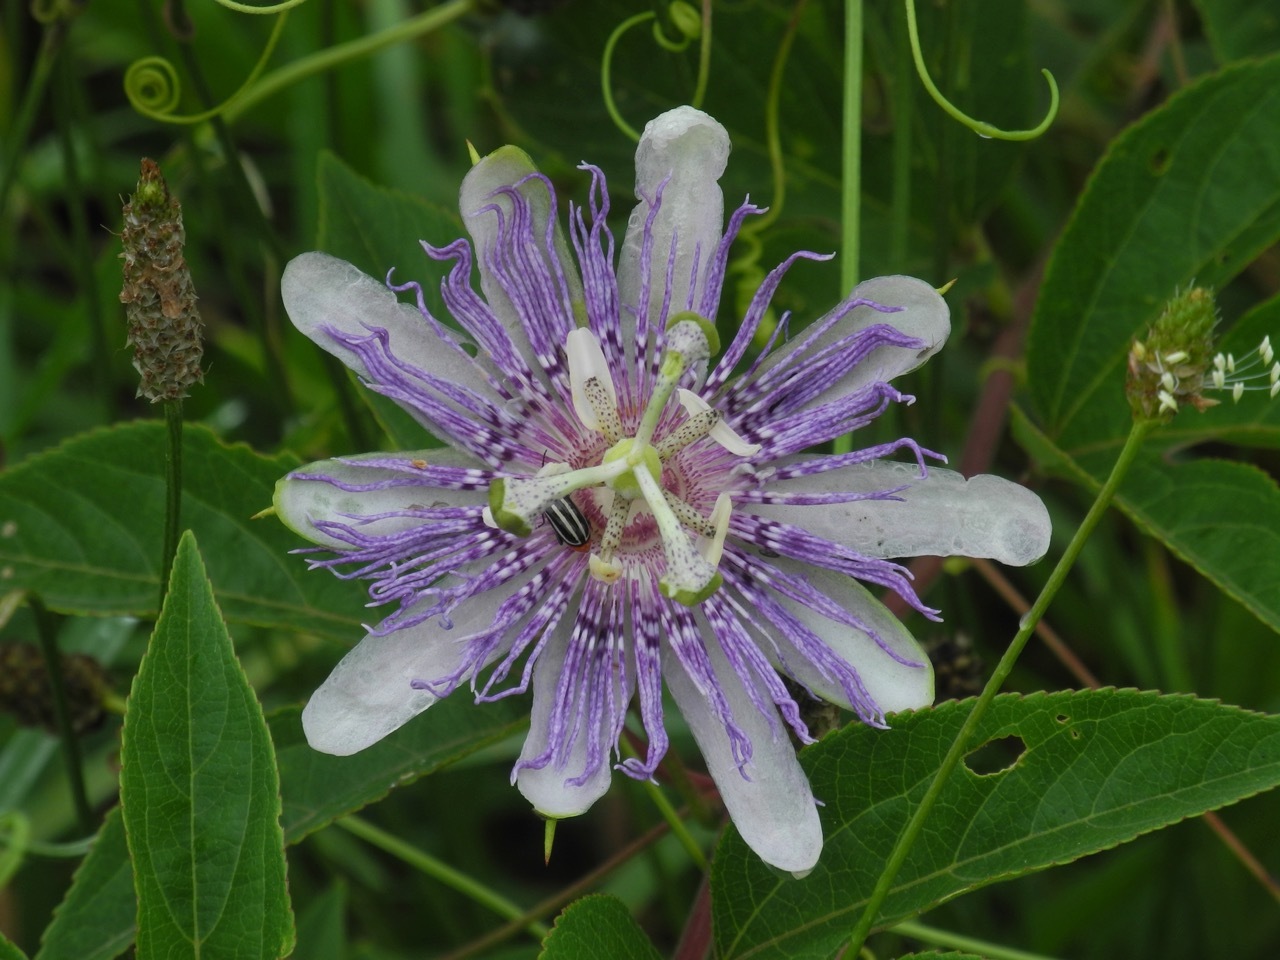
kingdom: Plantae
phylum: Tracheophyta
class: Magnoliopsida
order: Malpighiales
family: Passifloraceae
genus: Passiflora
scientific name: Passiflora incarnata
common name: Apricot-vine
